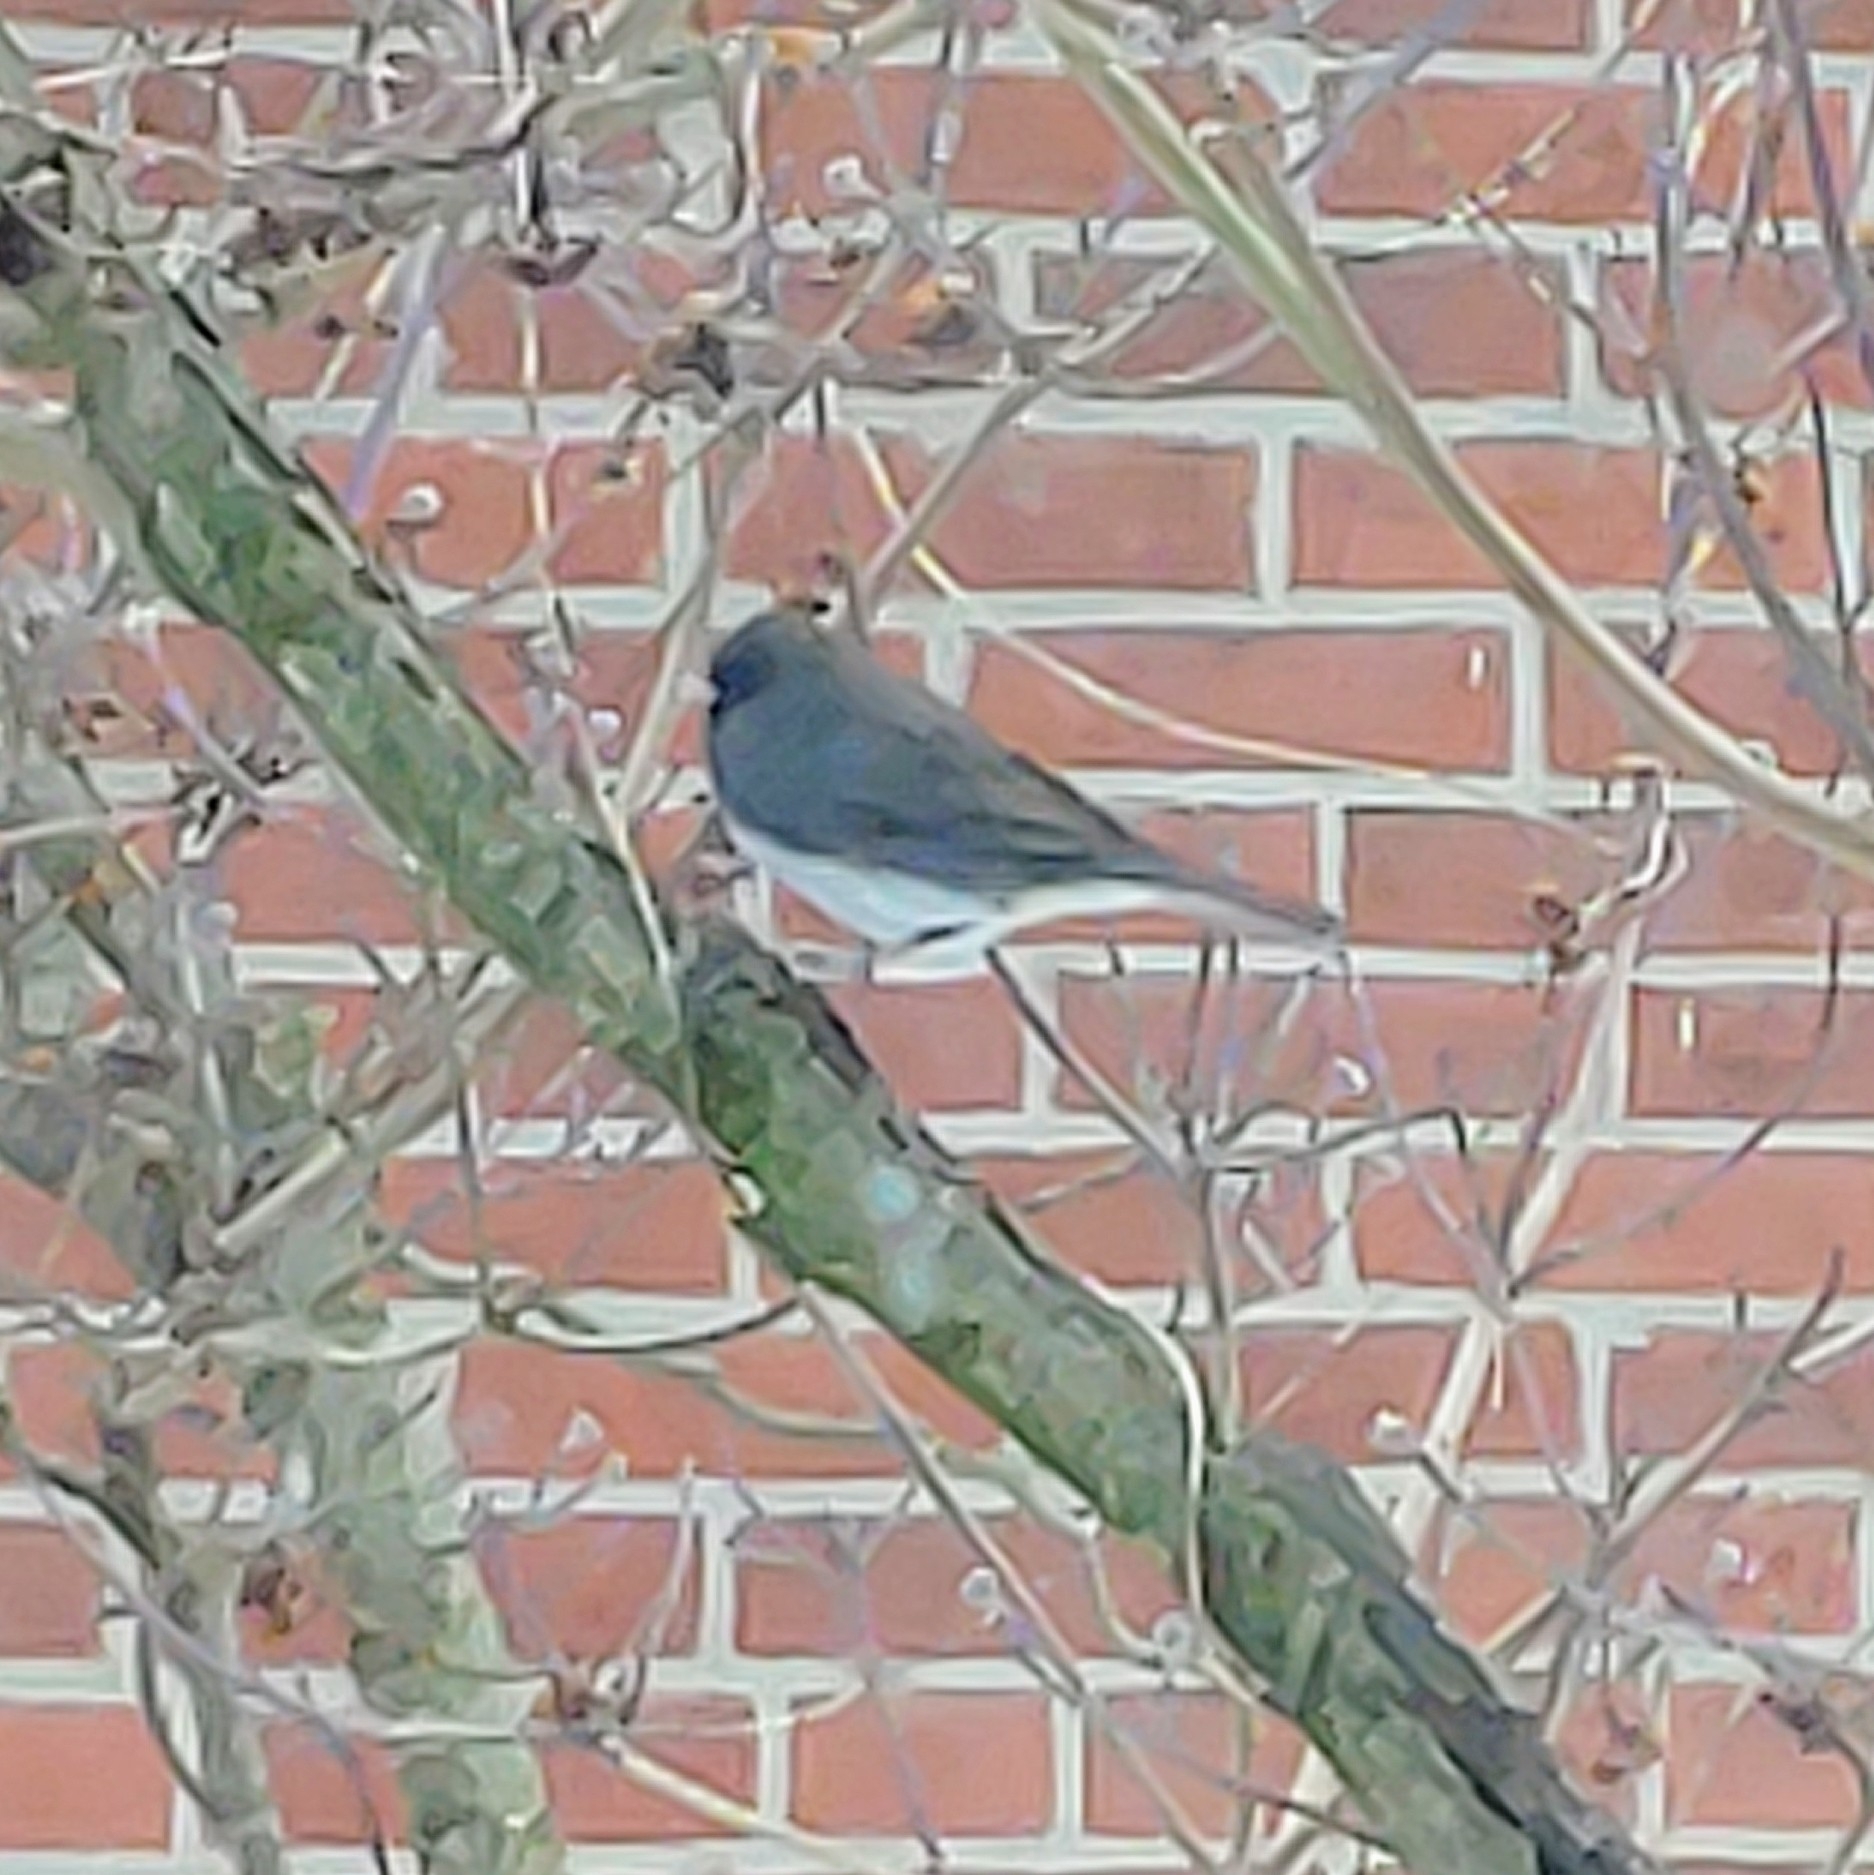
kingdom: Animalia
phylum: Chordata
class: Aves
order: Passeriformes
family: Passerellidae
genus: Junco
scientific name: Junco hyemalis
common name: Dark-eyed junco
